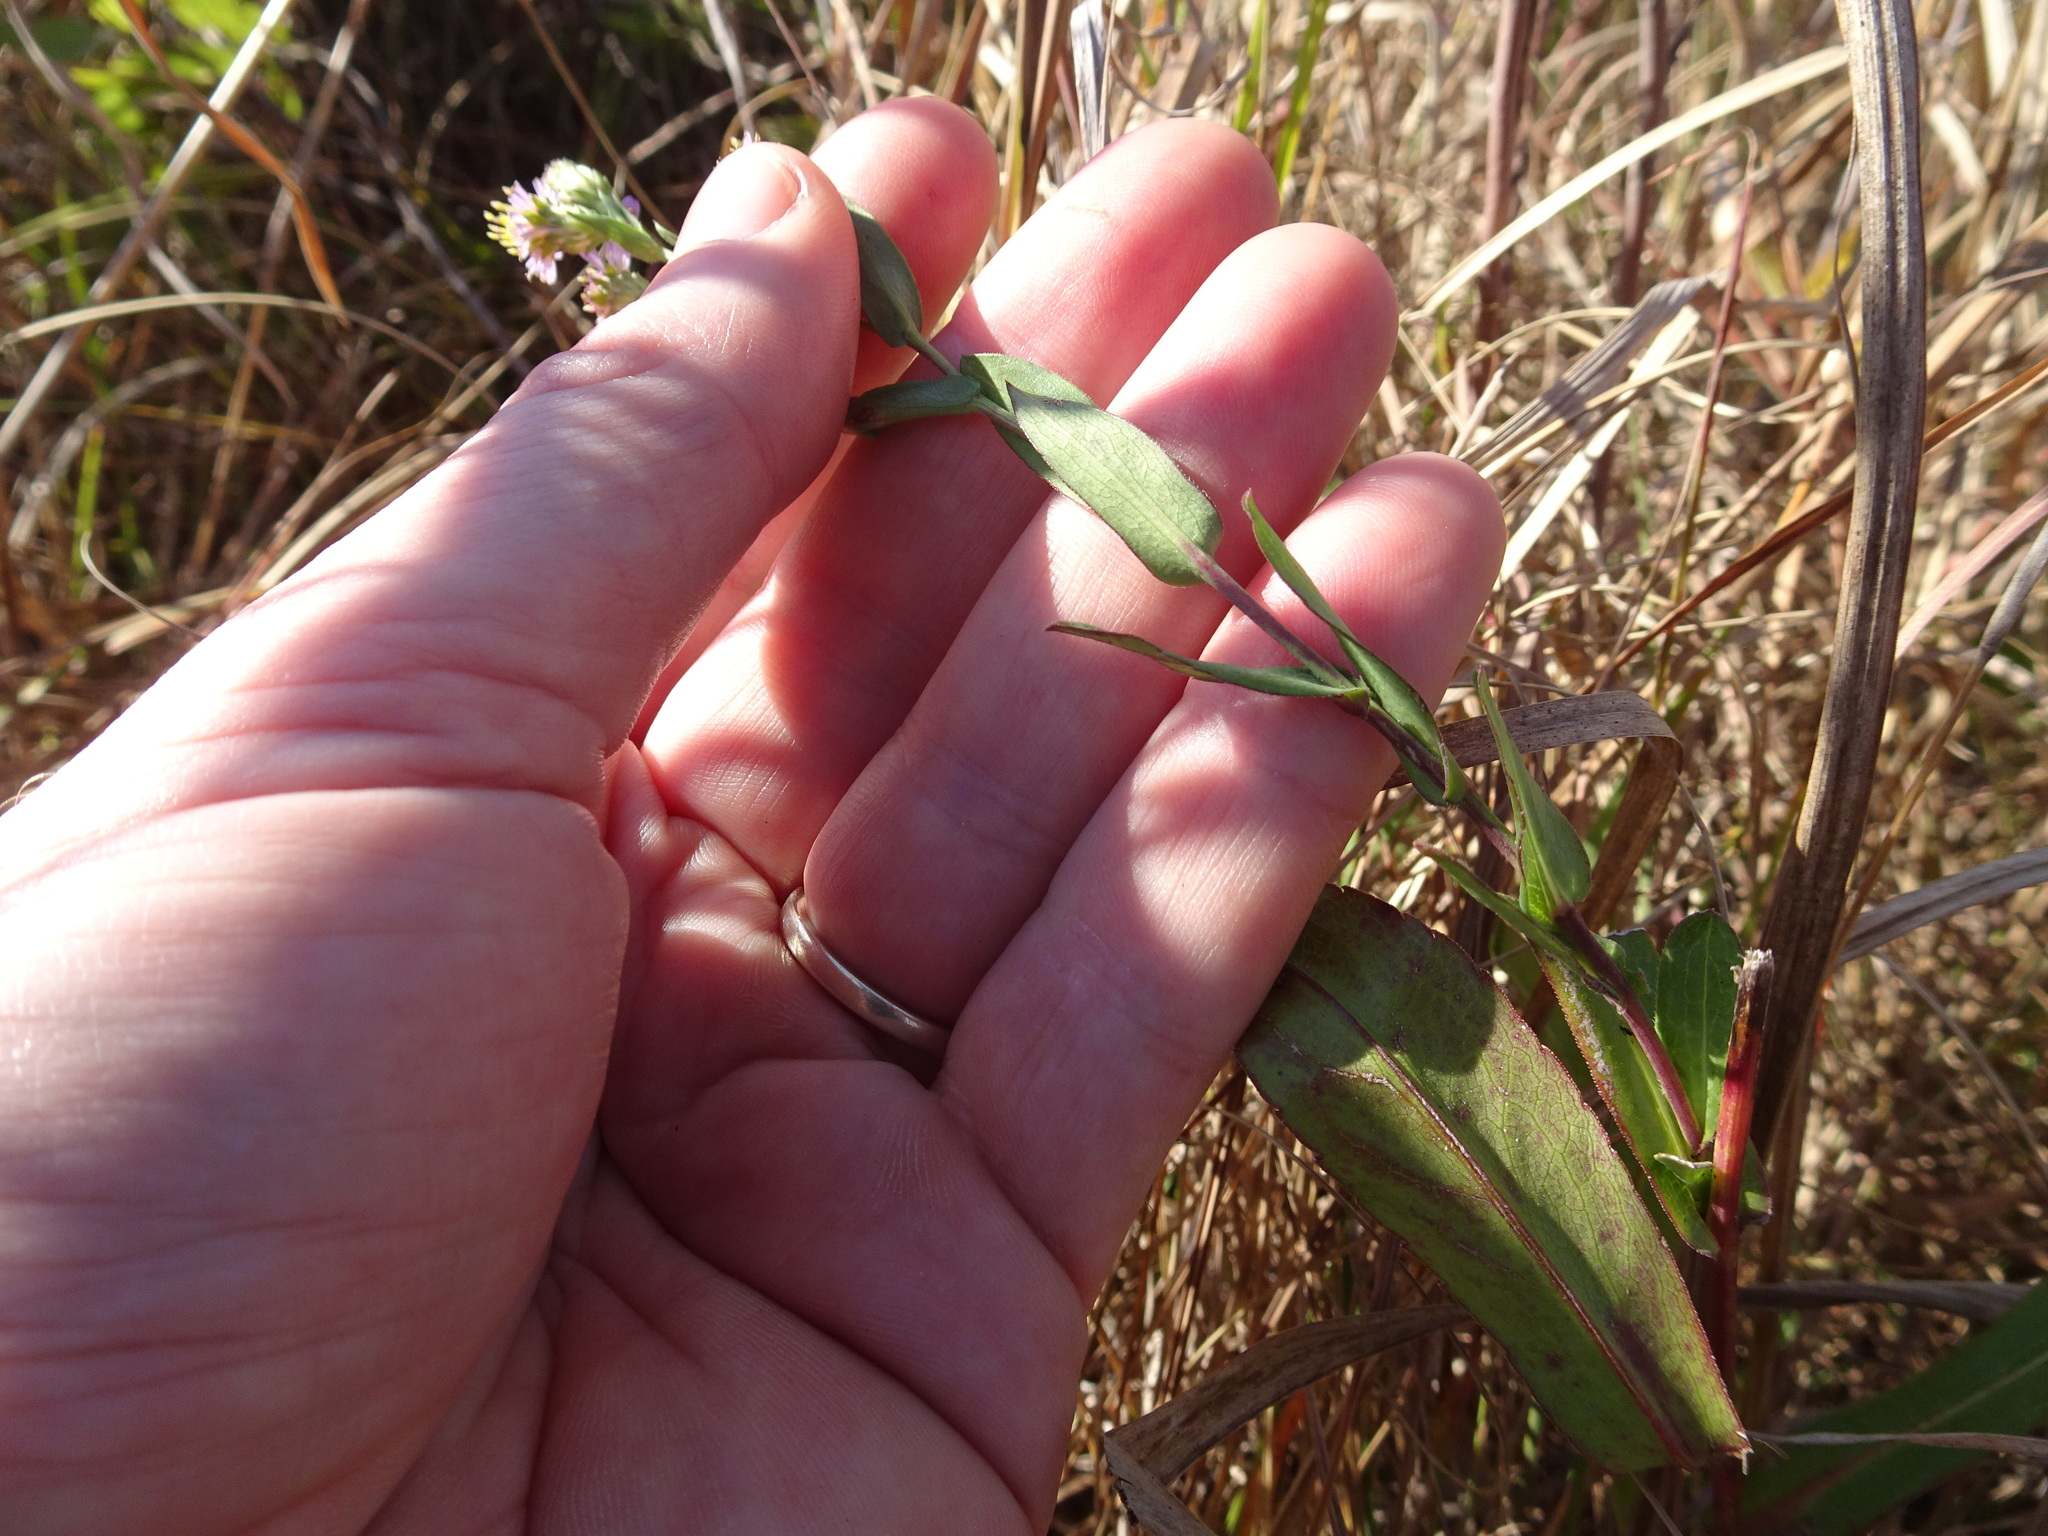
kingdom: Plantae
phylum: Tracheophyta
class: Magnoliopsida
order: Asterales
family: Asteraceae
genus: Symphyotrichum
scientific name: Symphyotrichum laeve
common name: Glaucous aster
